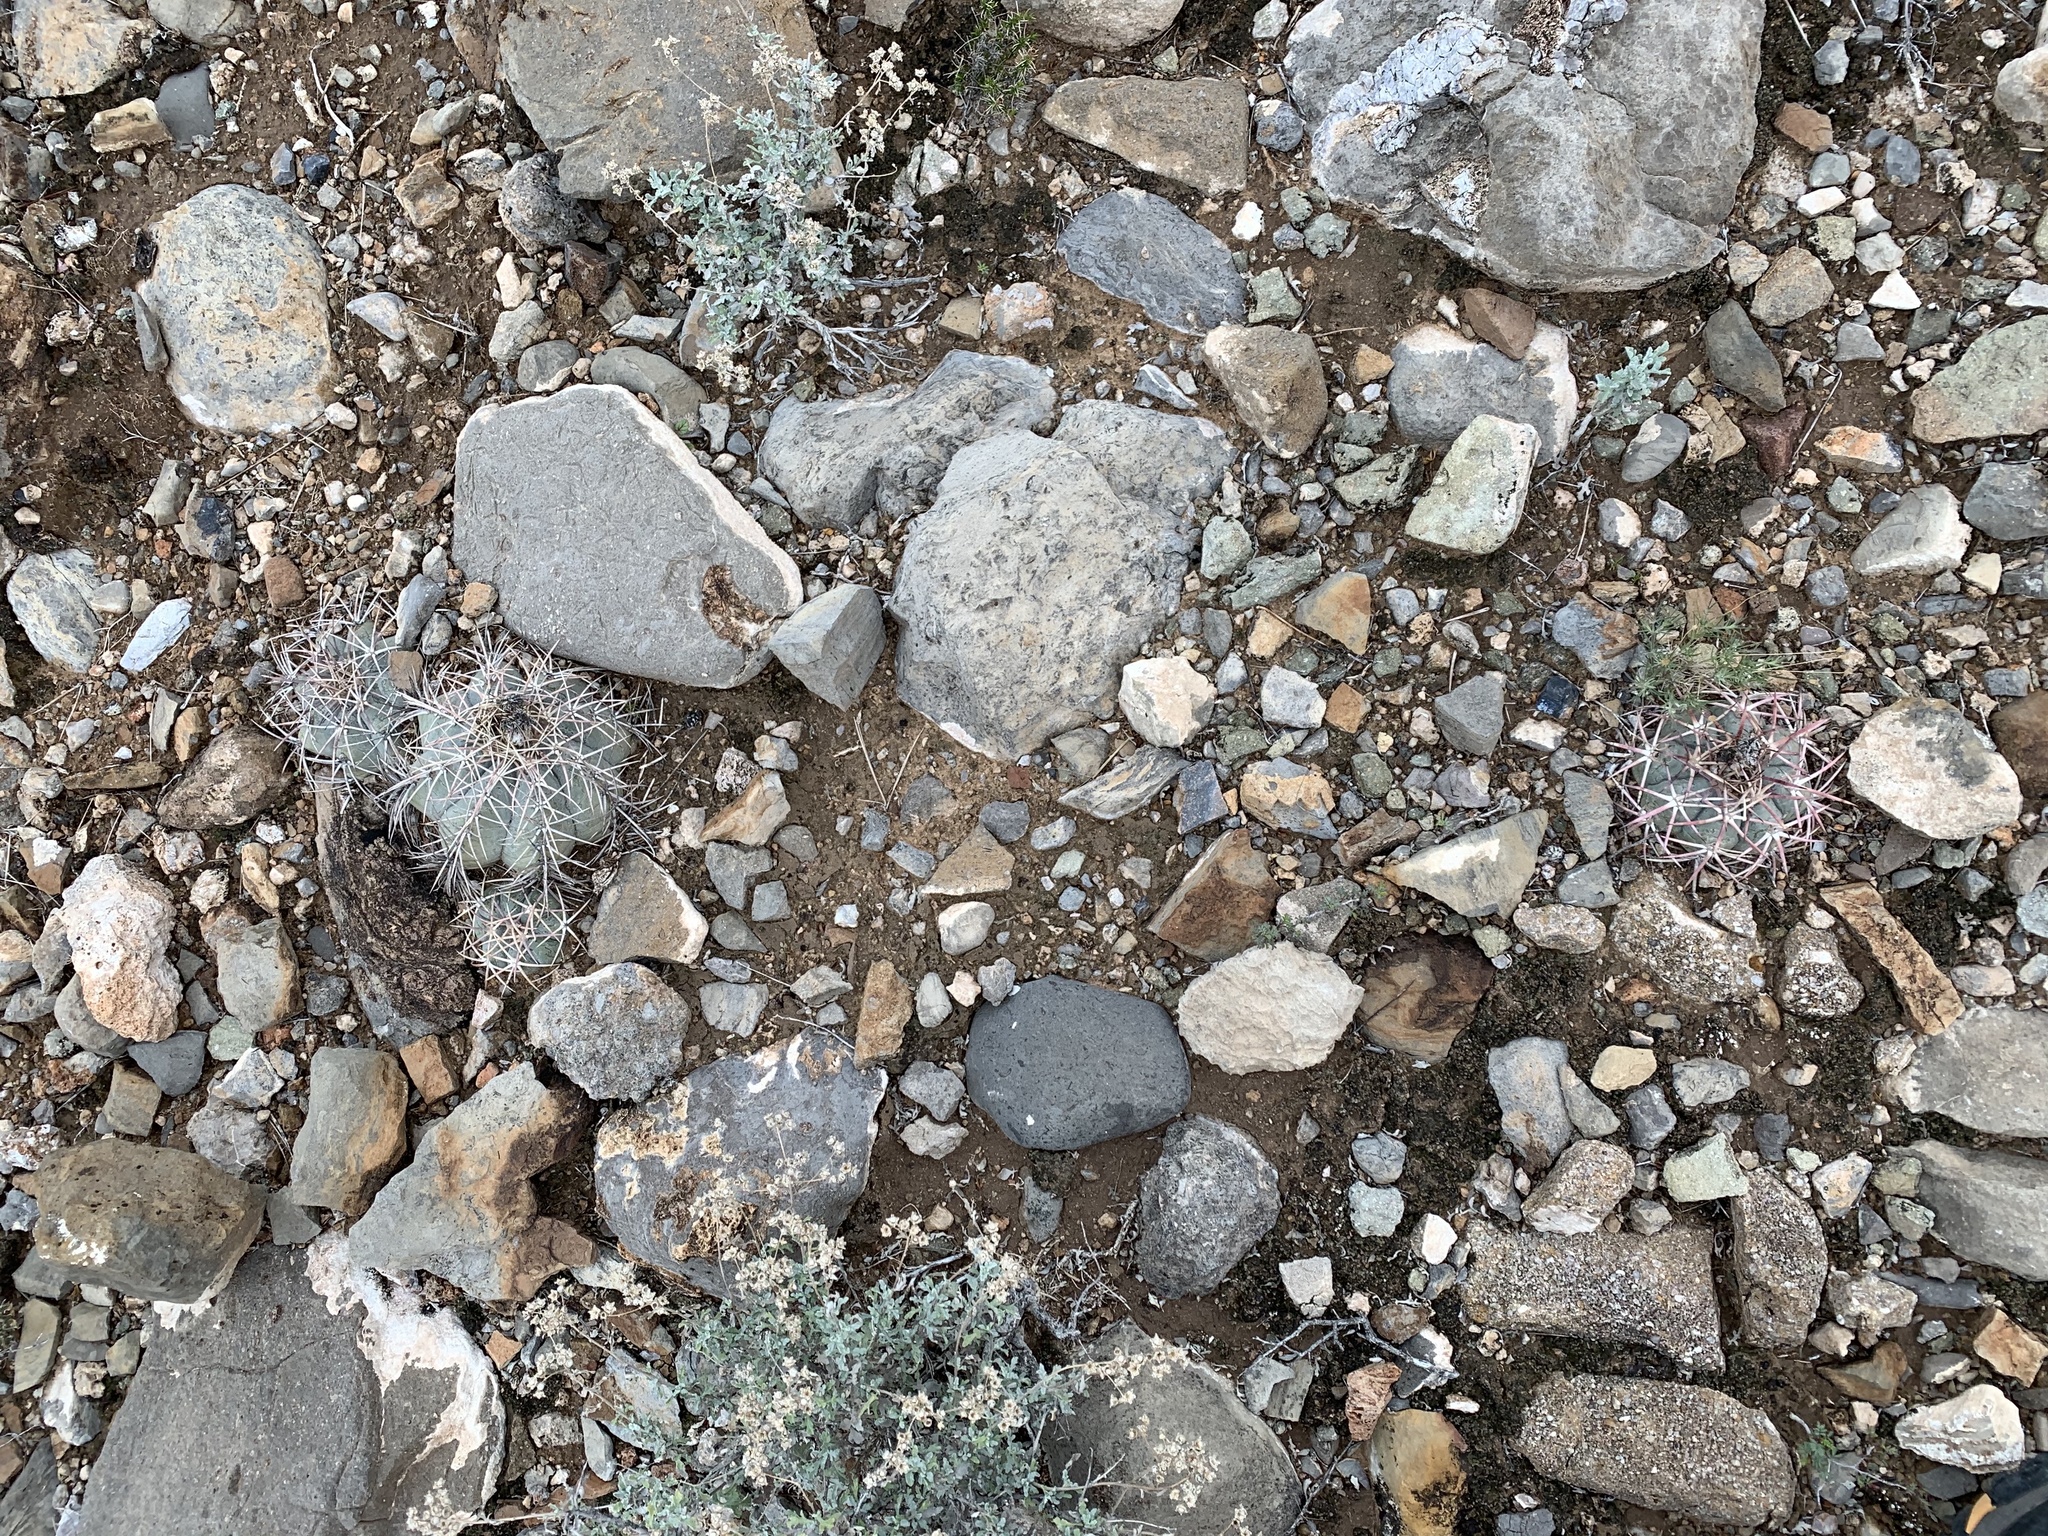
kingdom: Plantae
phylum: Tracheophyta
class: Magnoliopsida
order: Caryophyllales
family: Cactaceae
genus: Echinocactus
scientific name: Echinocactus horizonthalonius
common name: Devilshead
